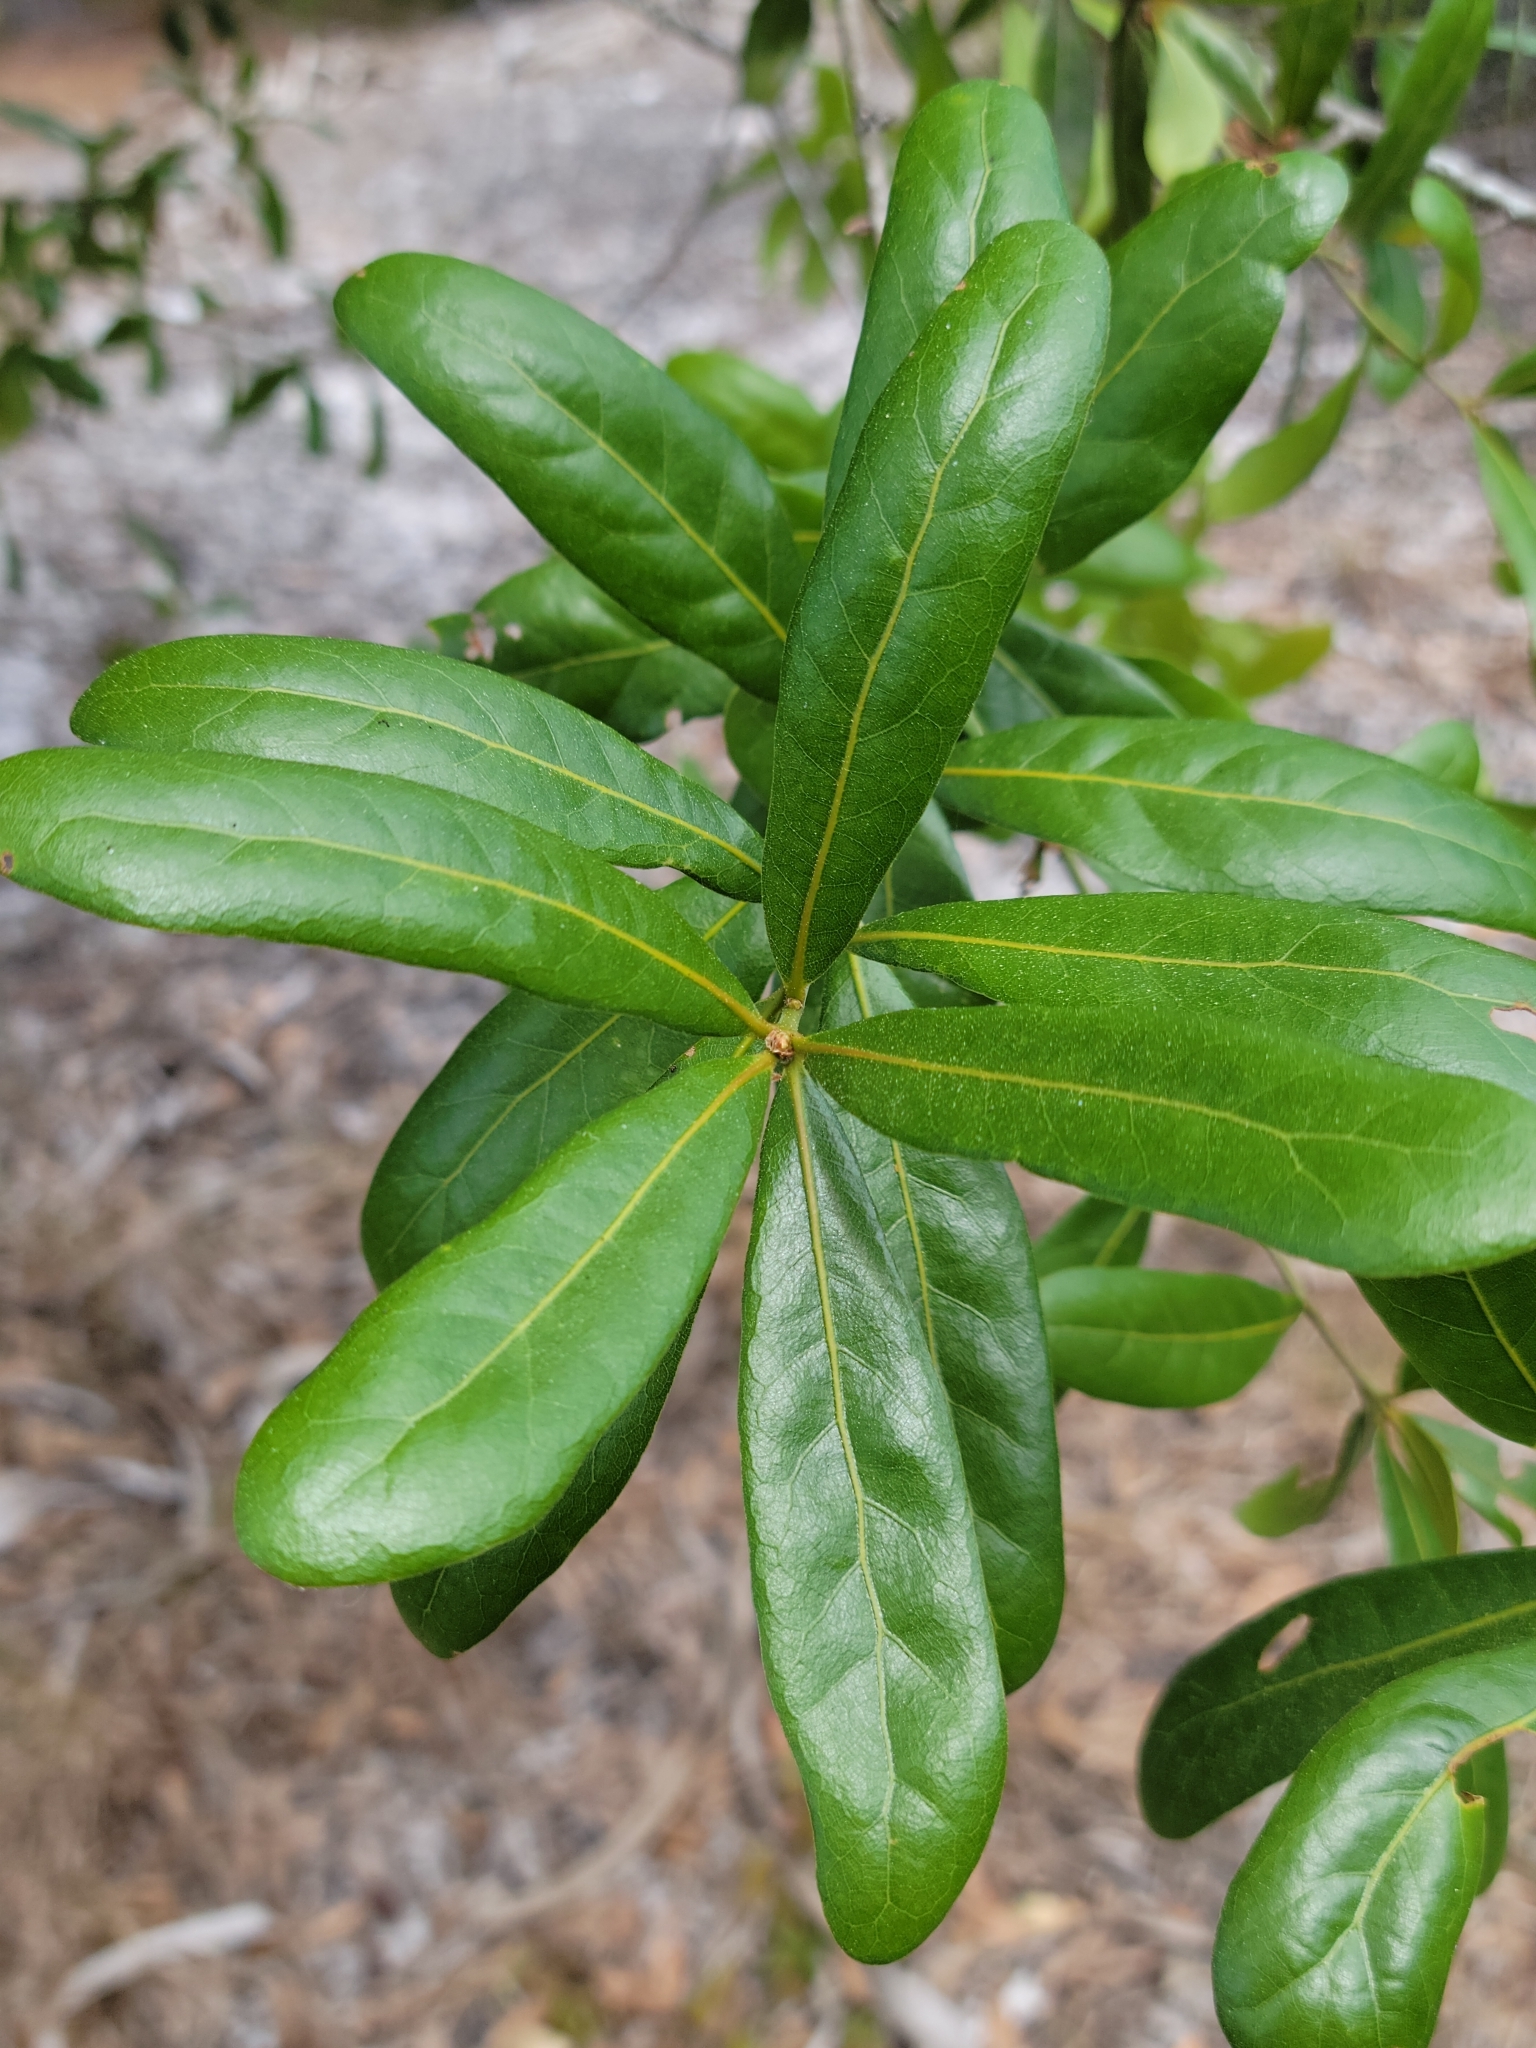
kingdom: Plantae
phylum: Tracheophyta
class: Magnoliopsida
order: Fagales
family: Fagaceae
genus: Quercus
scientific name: Quercus laurifolia
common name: Swamp laurel oak
